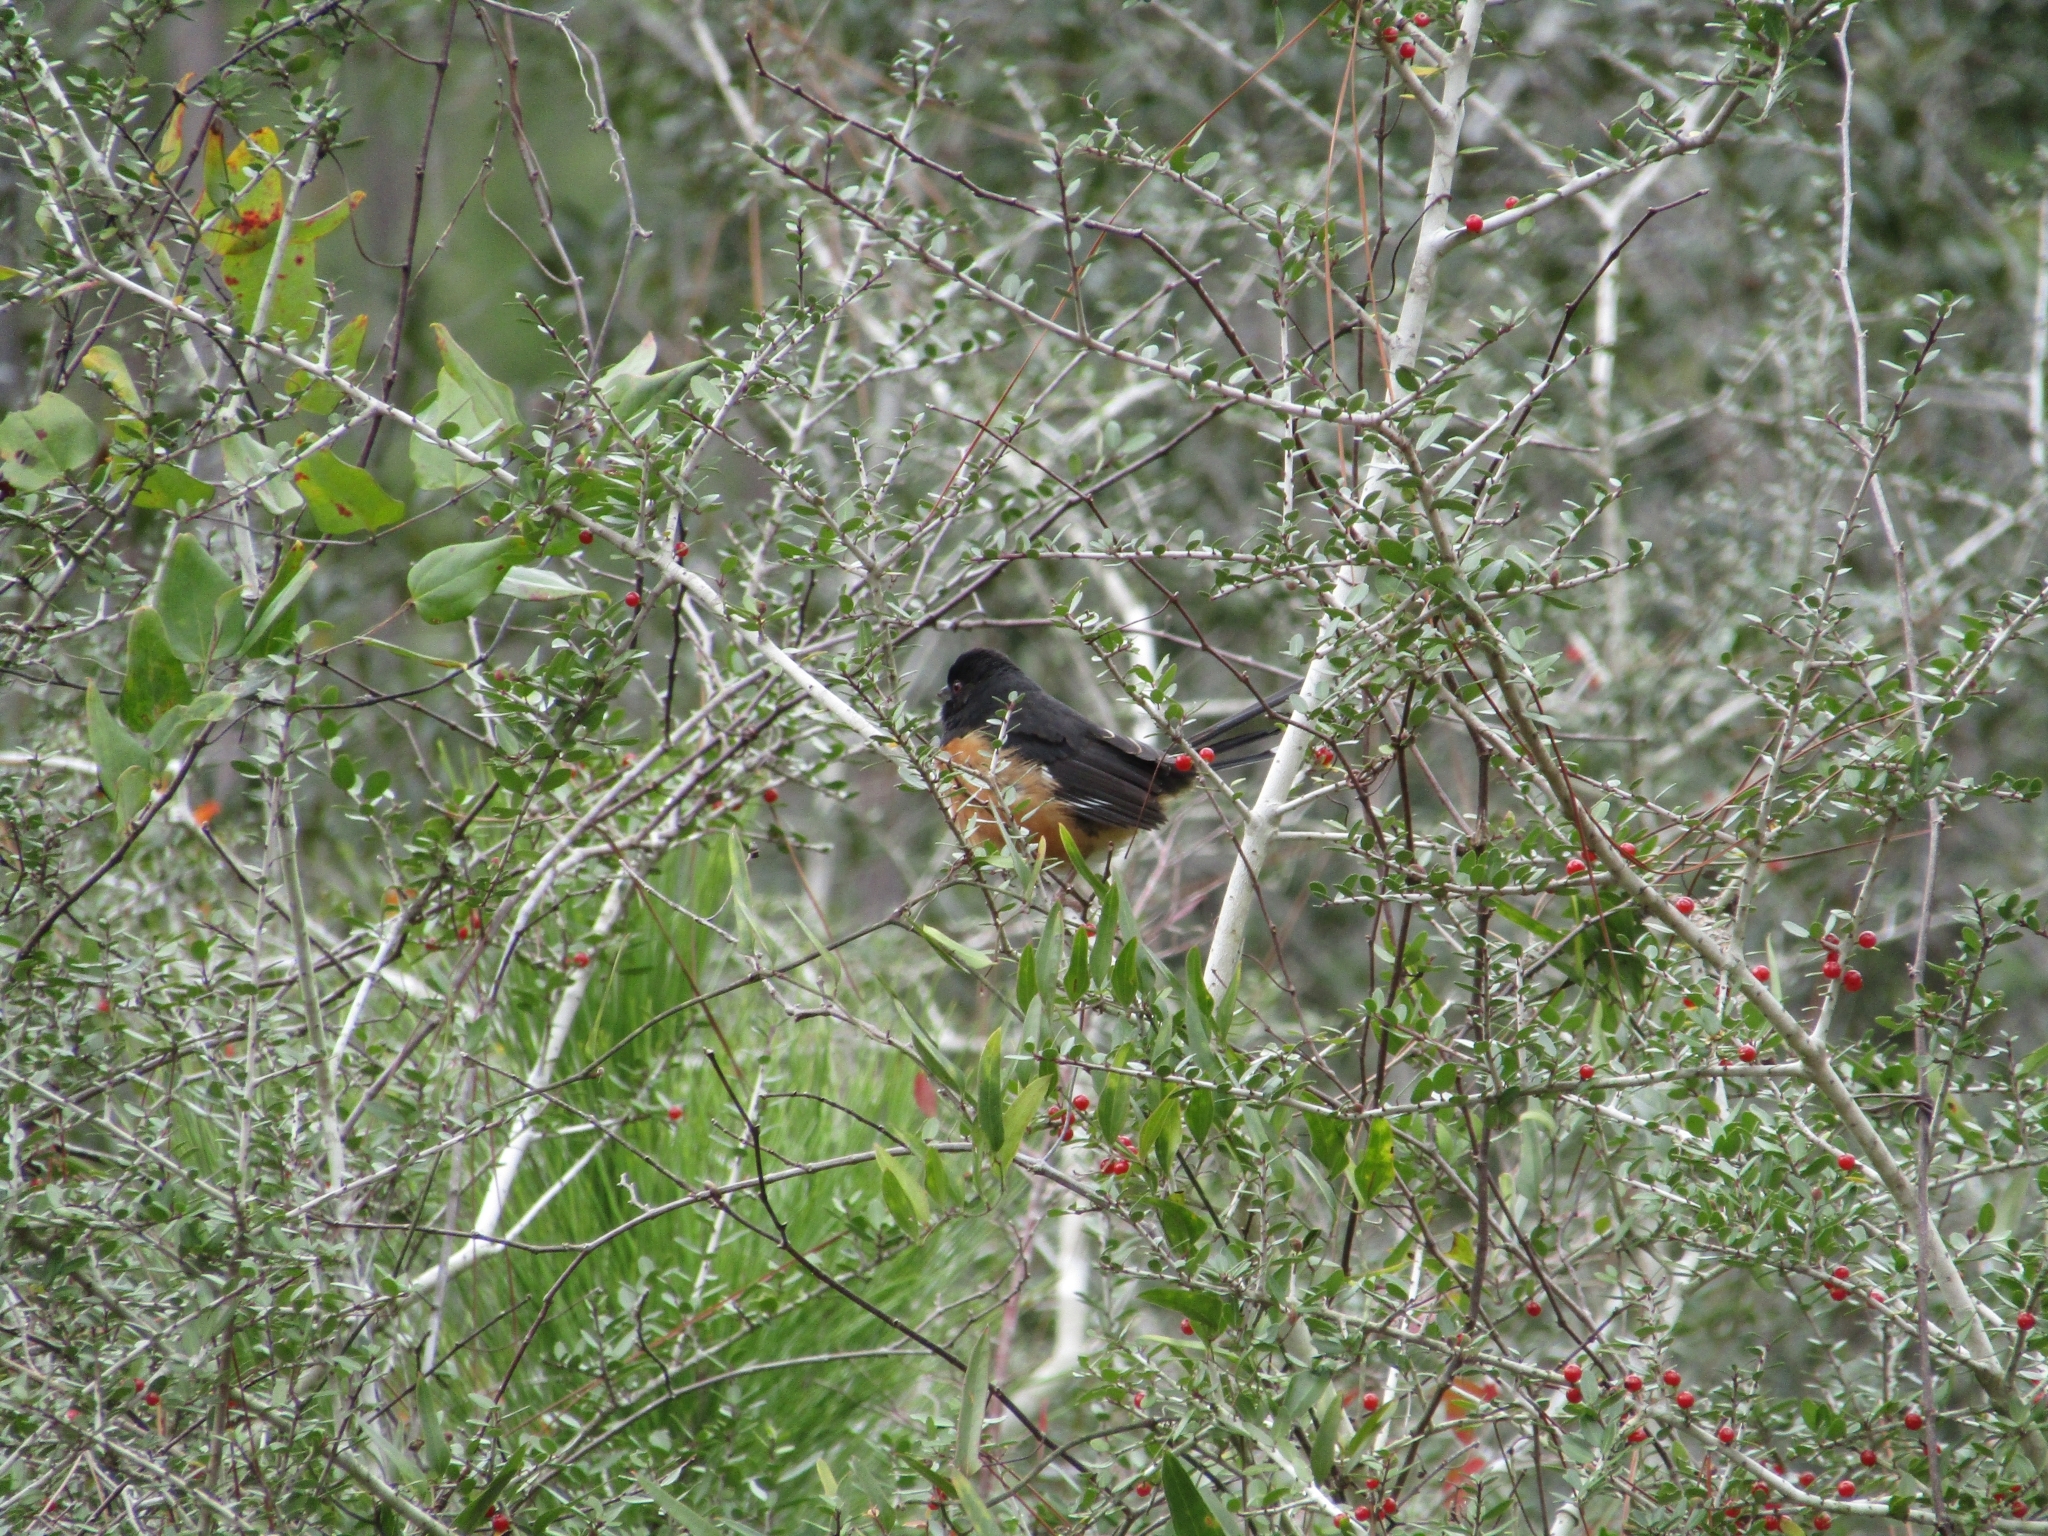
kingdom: Animalia
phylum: Chordata
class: Aves
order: Passeriformes
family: Passerellidae
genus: Pipilo
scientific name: Pipilo erythrophthalmus
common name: Eastern towhee
